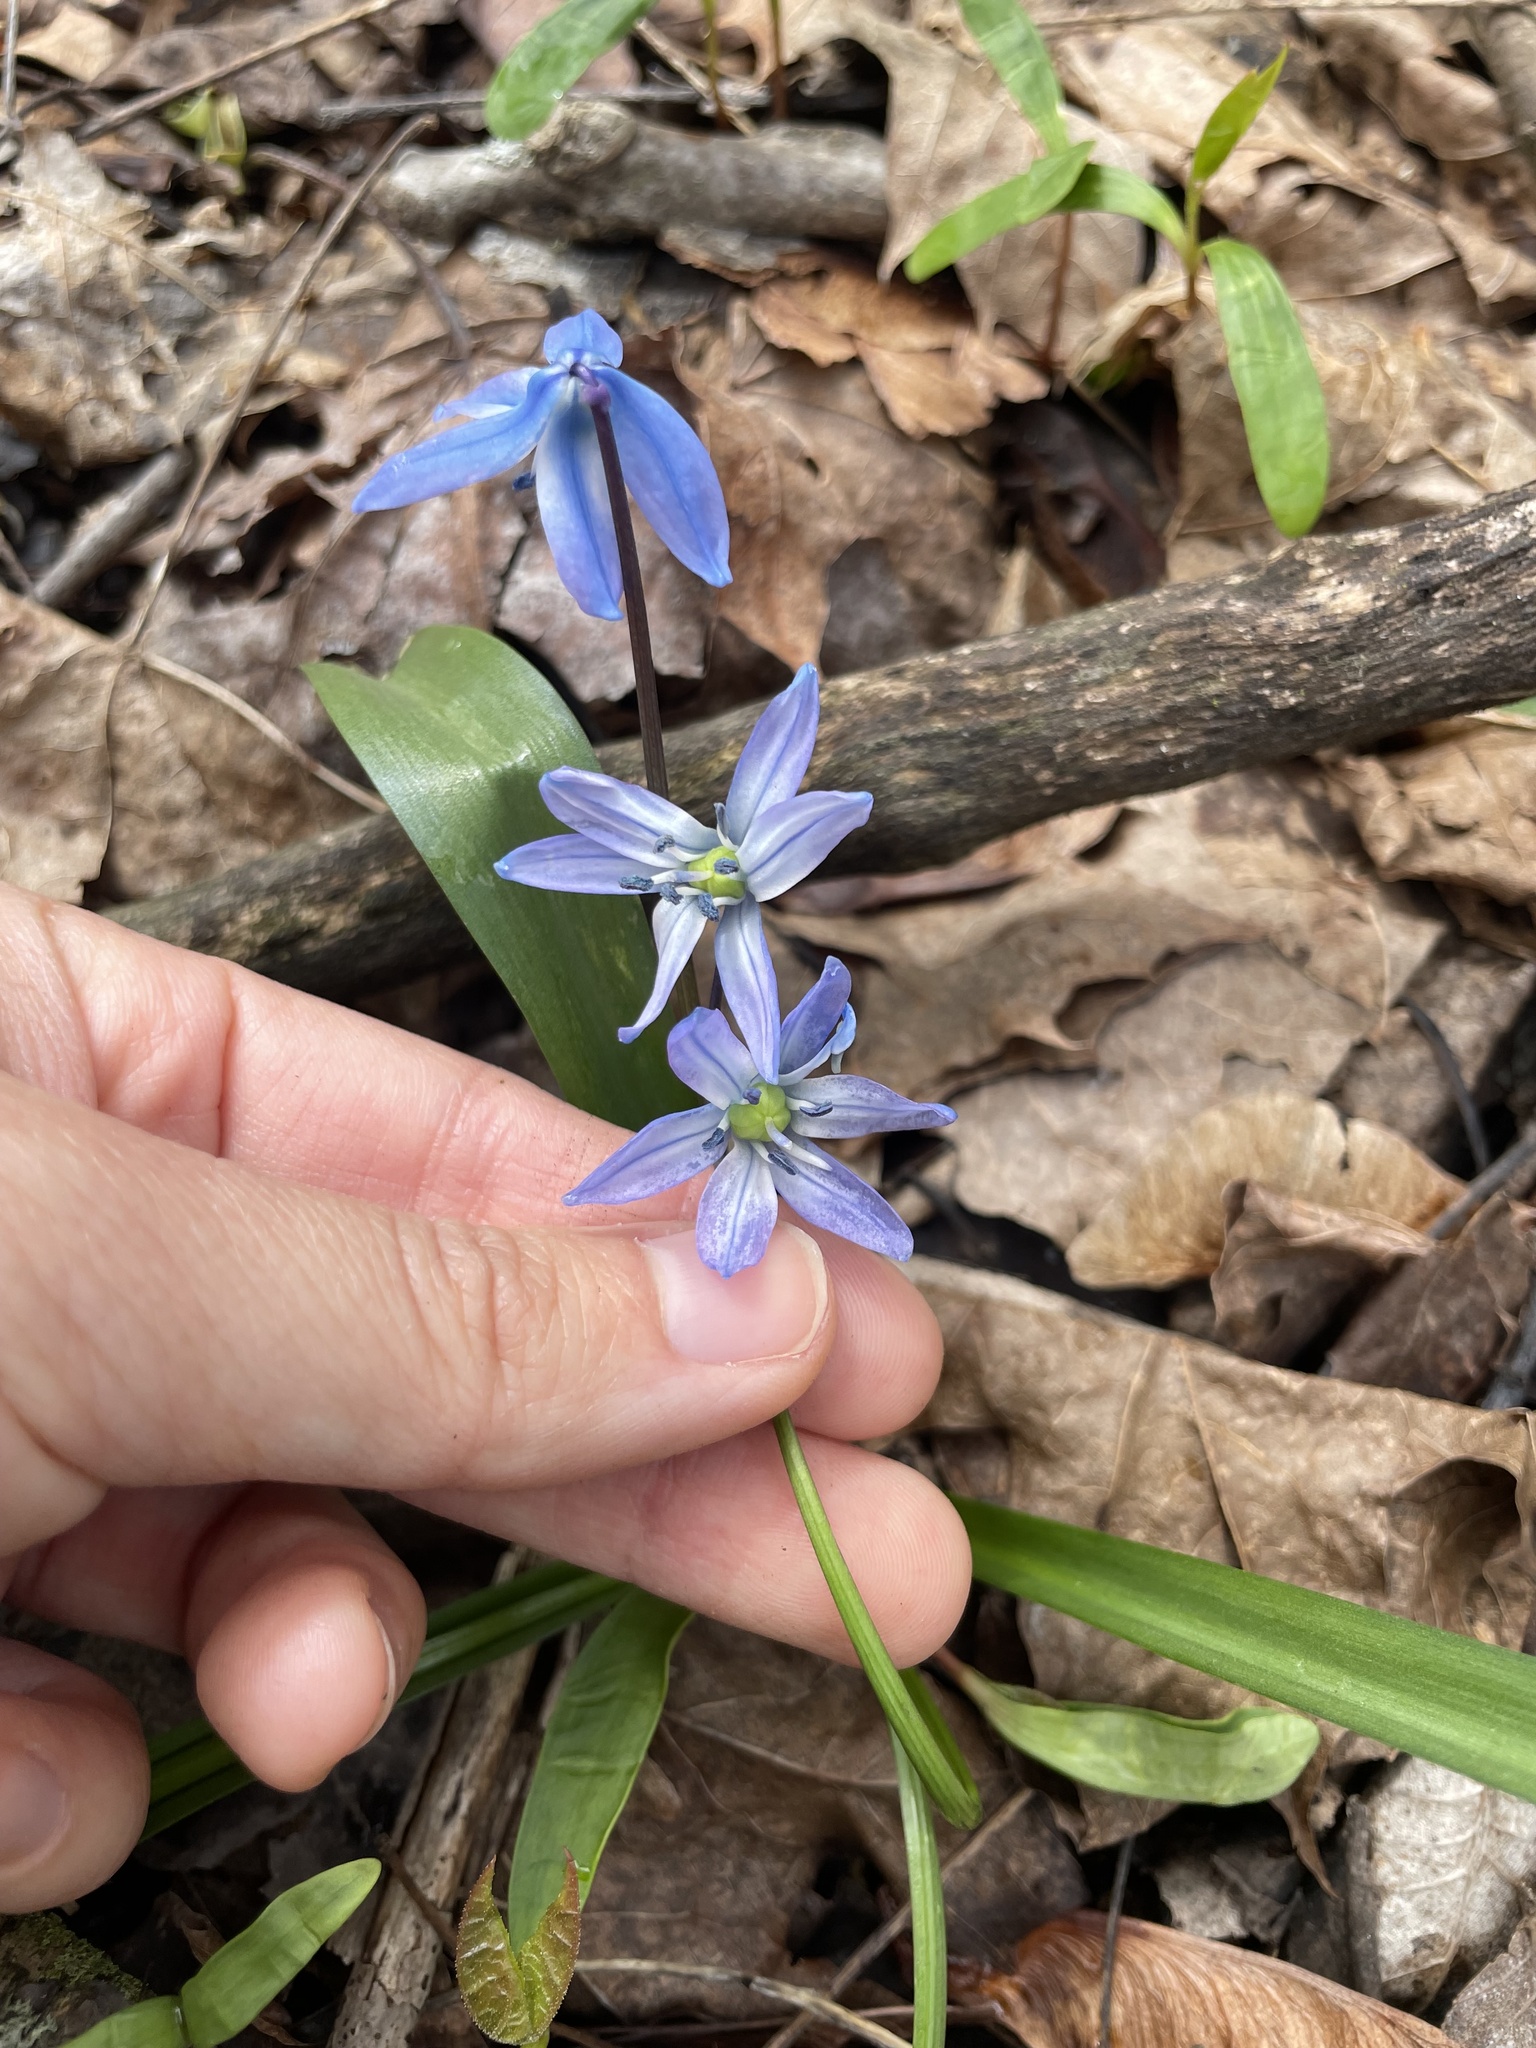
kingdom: Plantae
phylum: Tracheophyta
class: Liliopsida
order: Asparagales
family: Asparagaceae
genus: Scilla
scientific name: Scilla siberica
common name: Siberian squill
